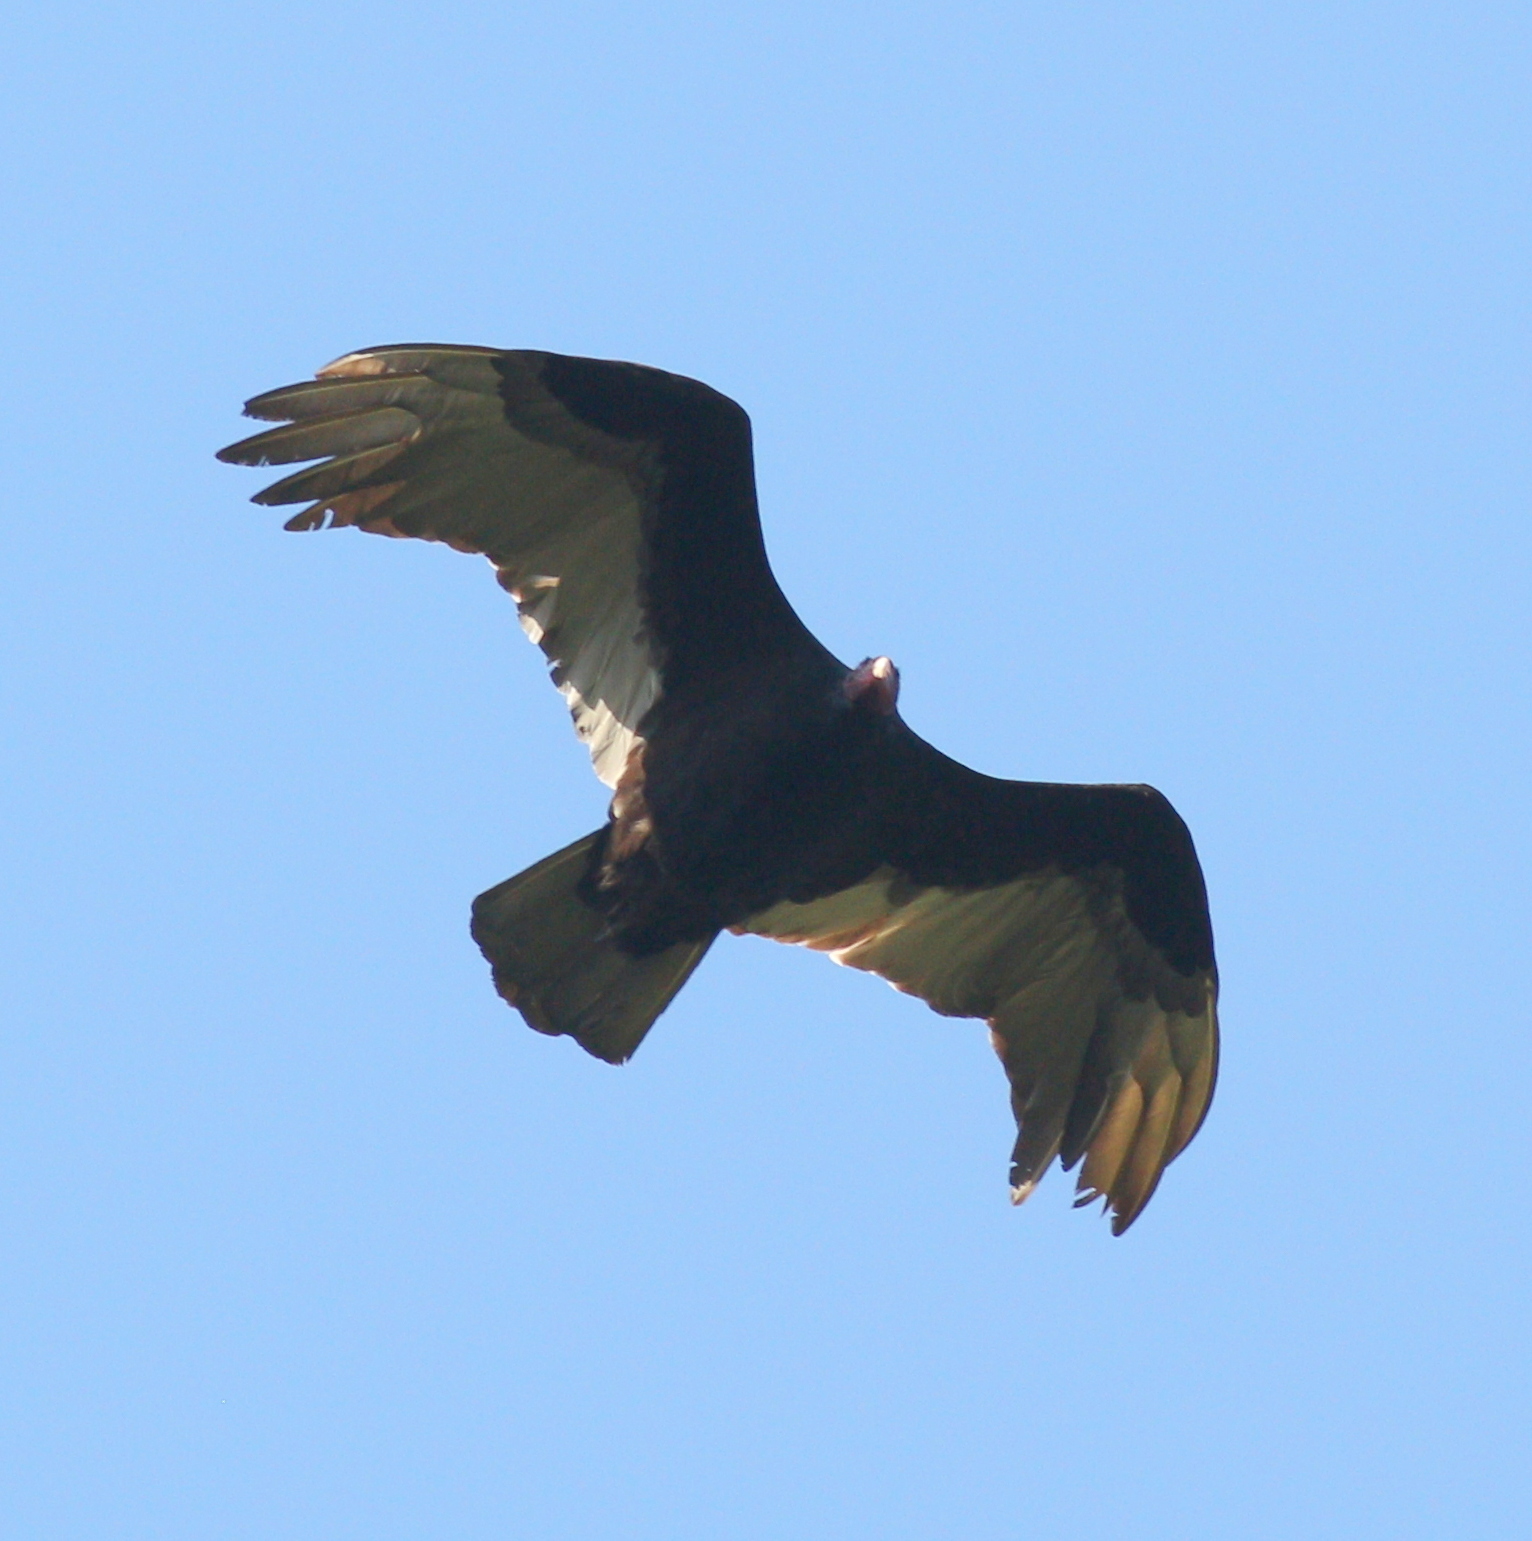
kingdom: Animalia
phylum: Chordata
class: Aves
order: Accipitriformes
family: Cathartidae
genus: Cathartes
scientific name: Cathartes aura
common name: Turkey vulture
